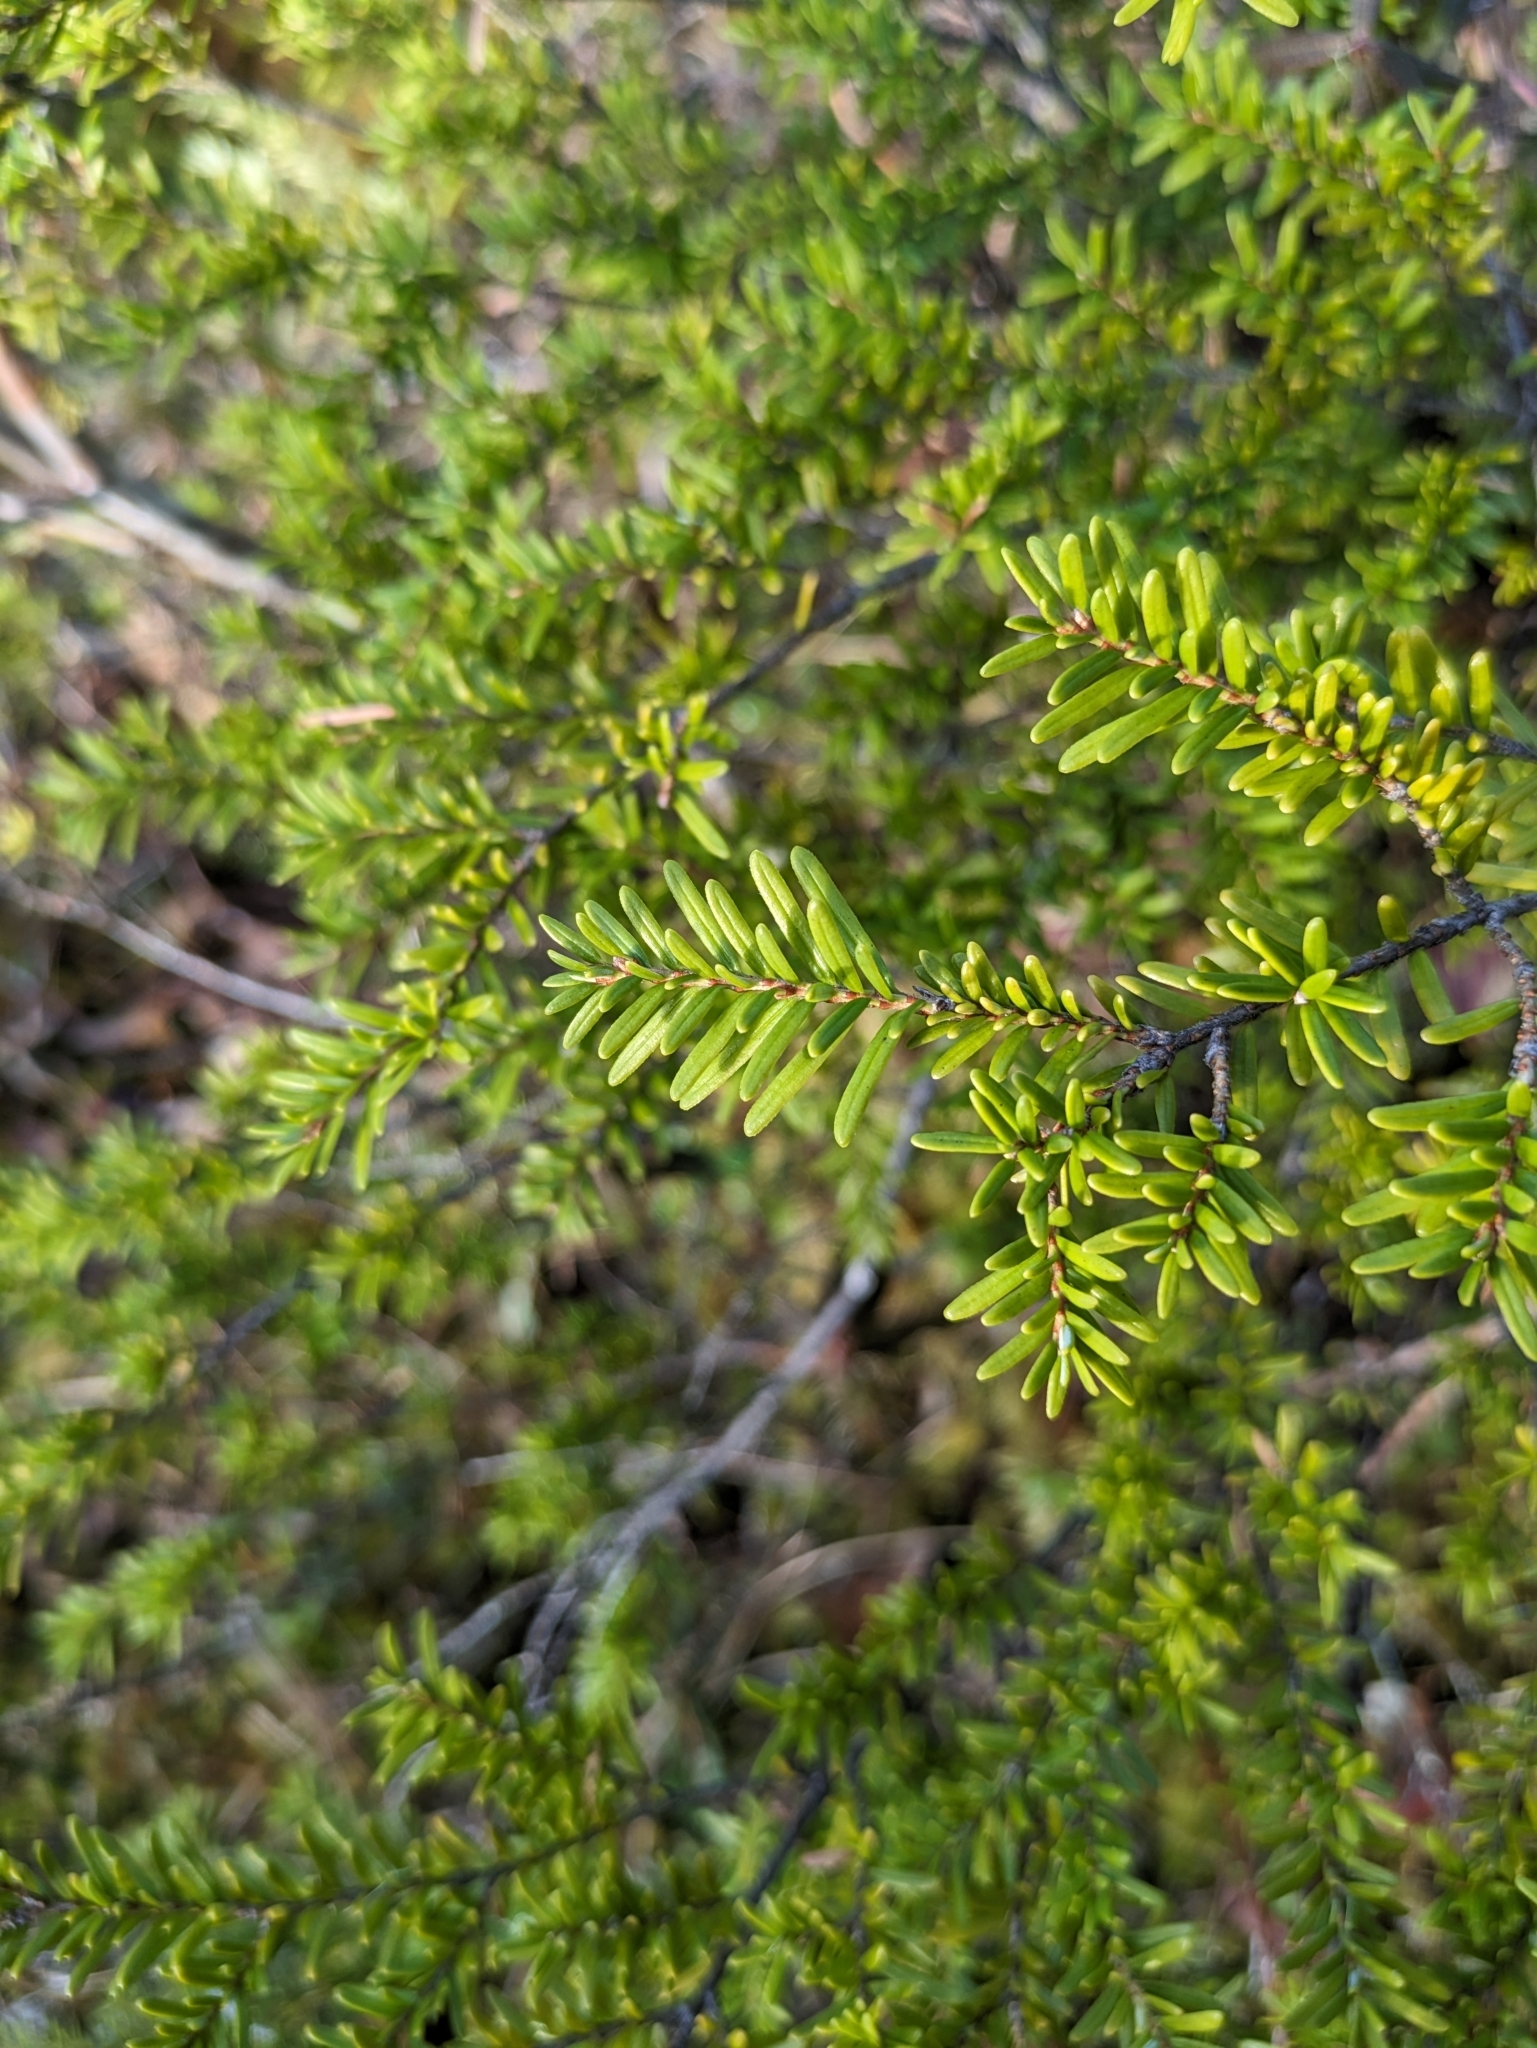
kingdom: Plantae
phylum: Tracheophyta
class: Pinopsida
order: Pinales
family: Pinaceae
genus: Tsuga
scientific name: Tsuga heterophylla
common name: Western hemlock
